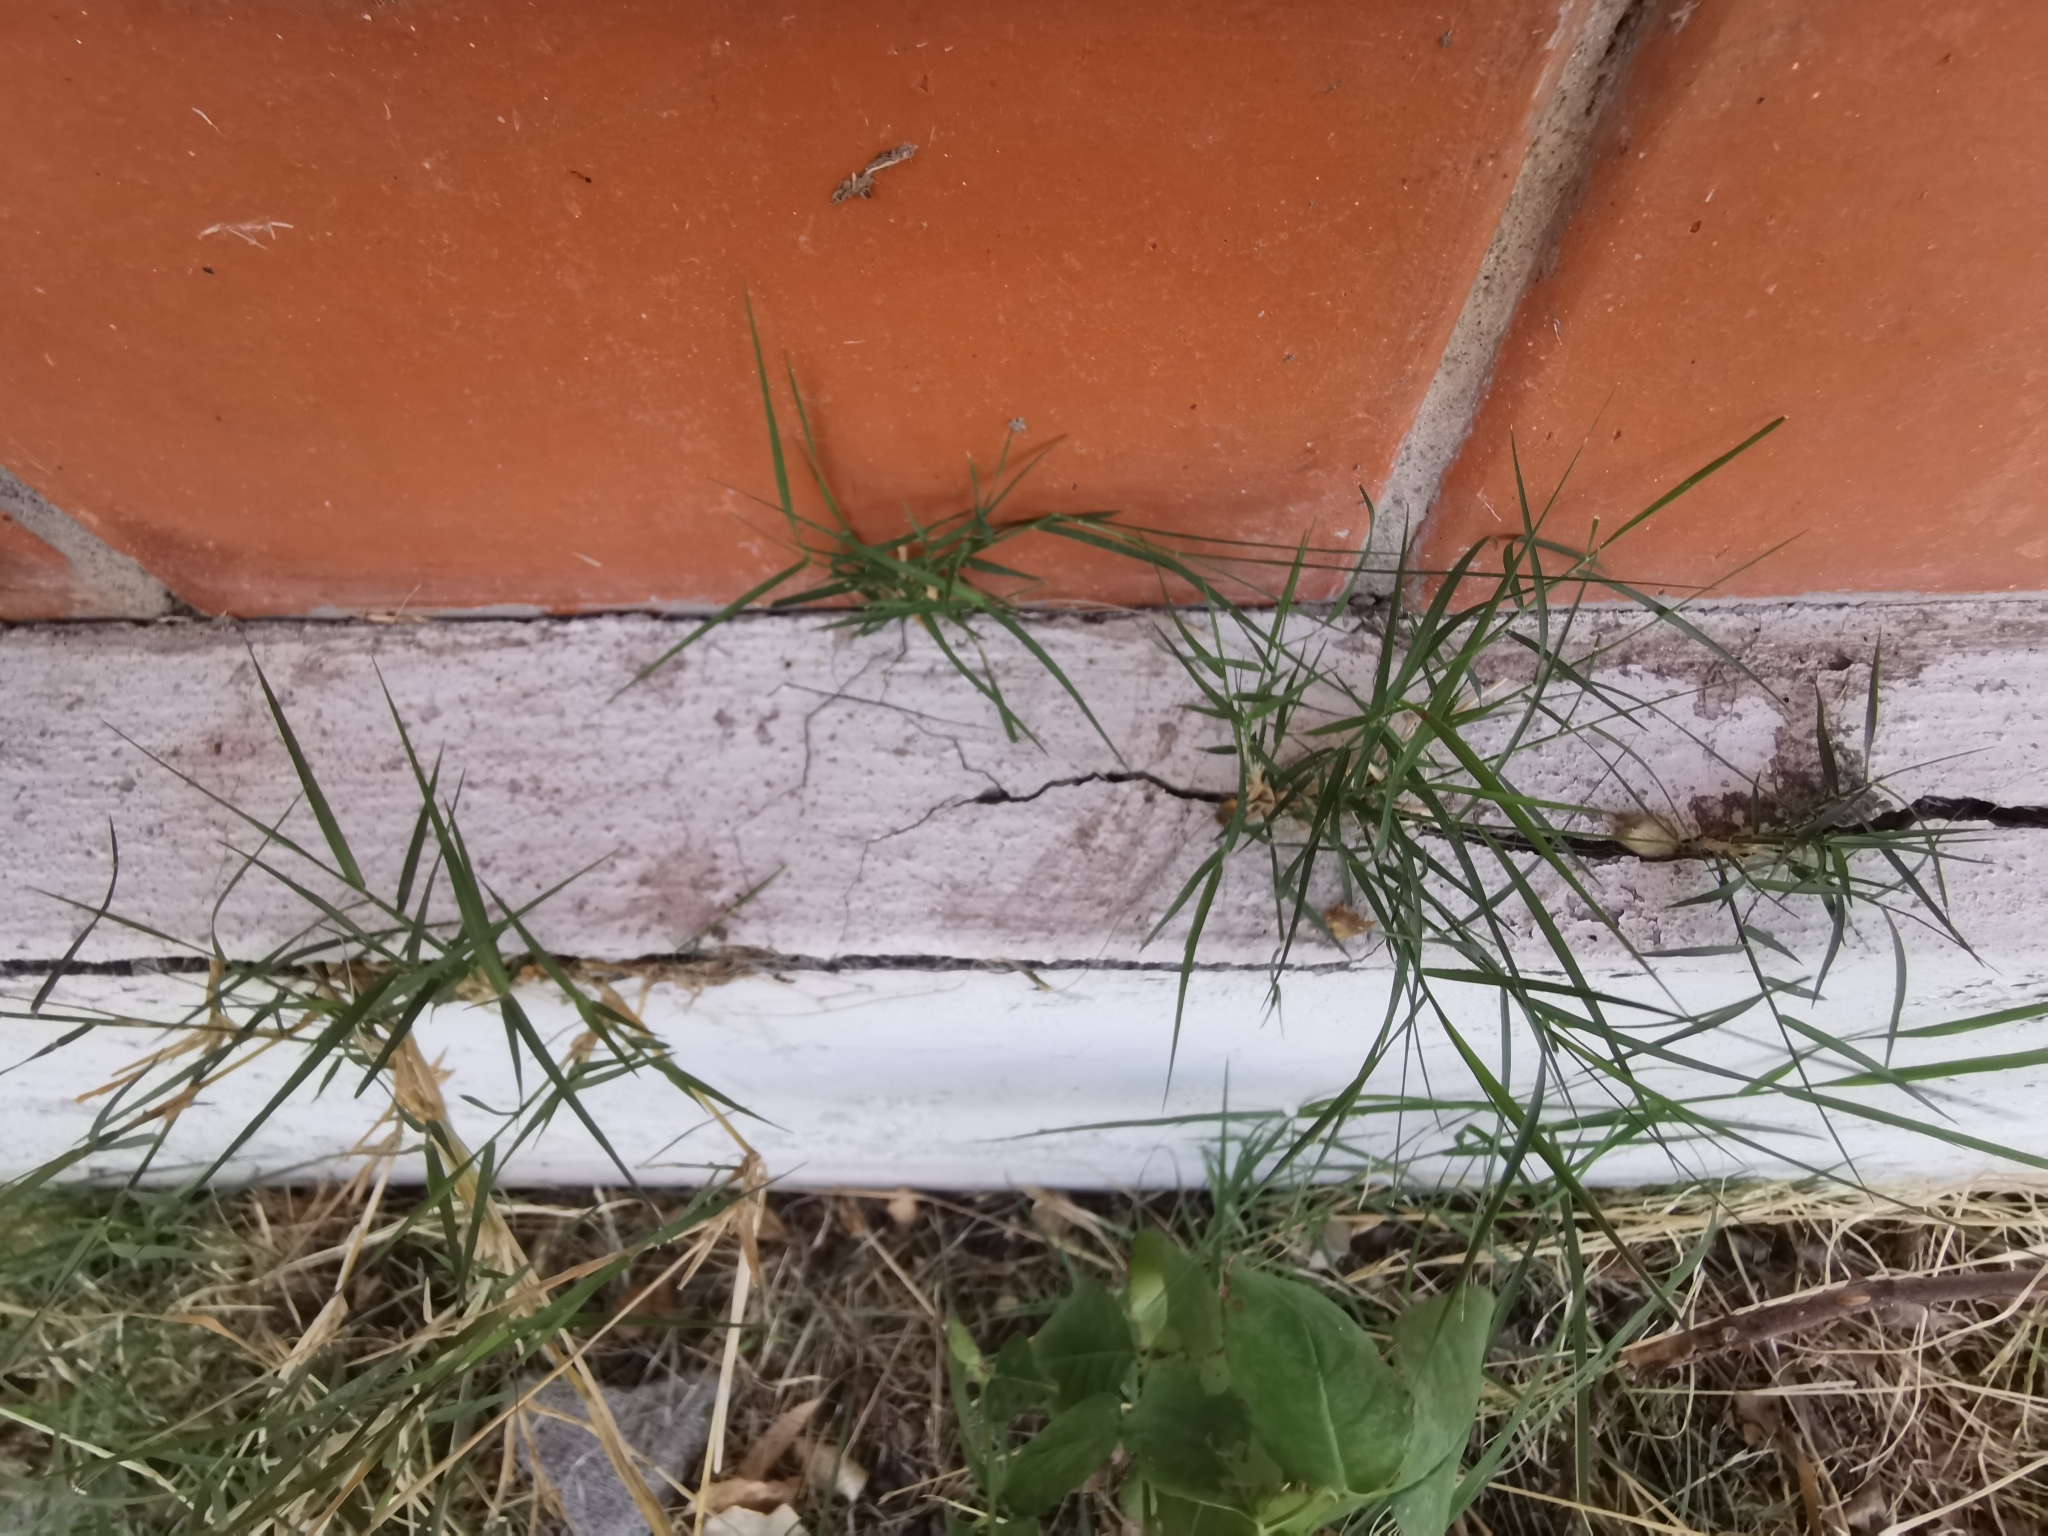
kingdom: Plantae
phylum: Tracheophyta
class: Liliopsida
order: Poales
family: Poaceae
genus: Cynodon
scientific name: Cynodon dactylon
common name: Bermuda grass
